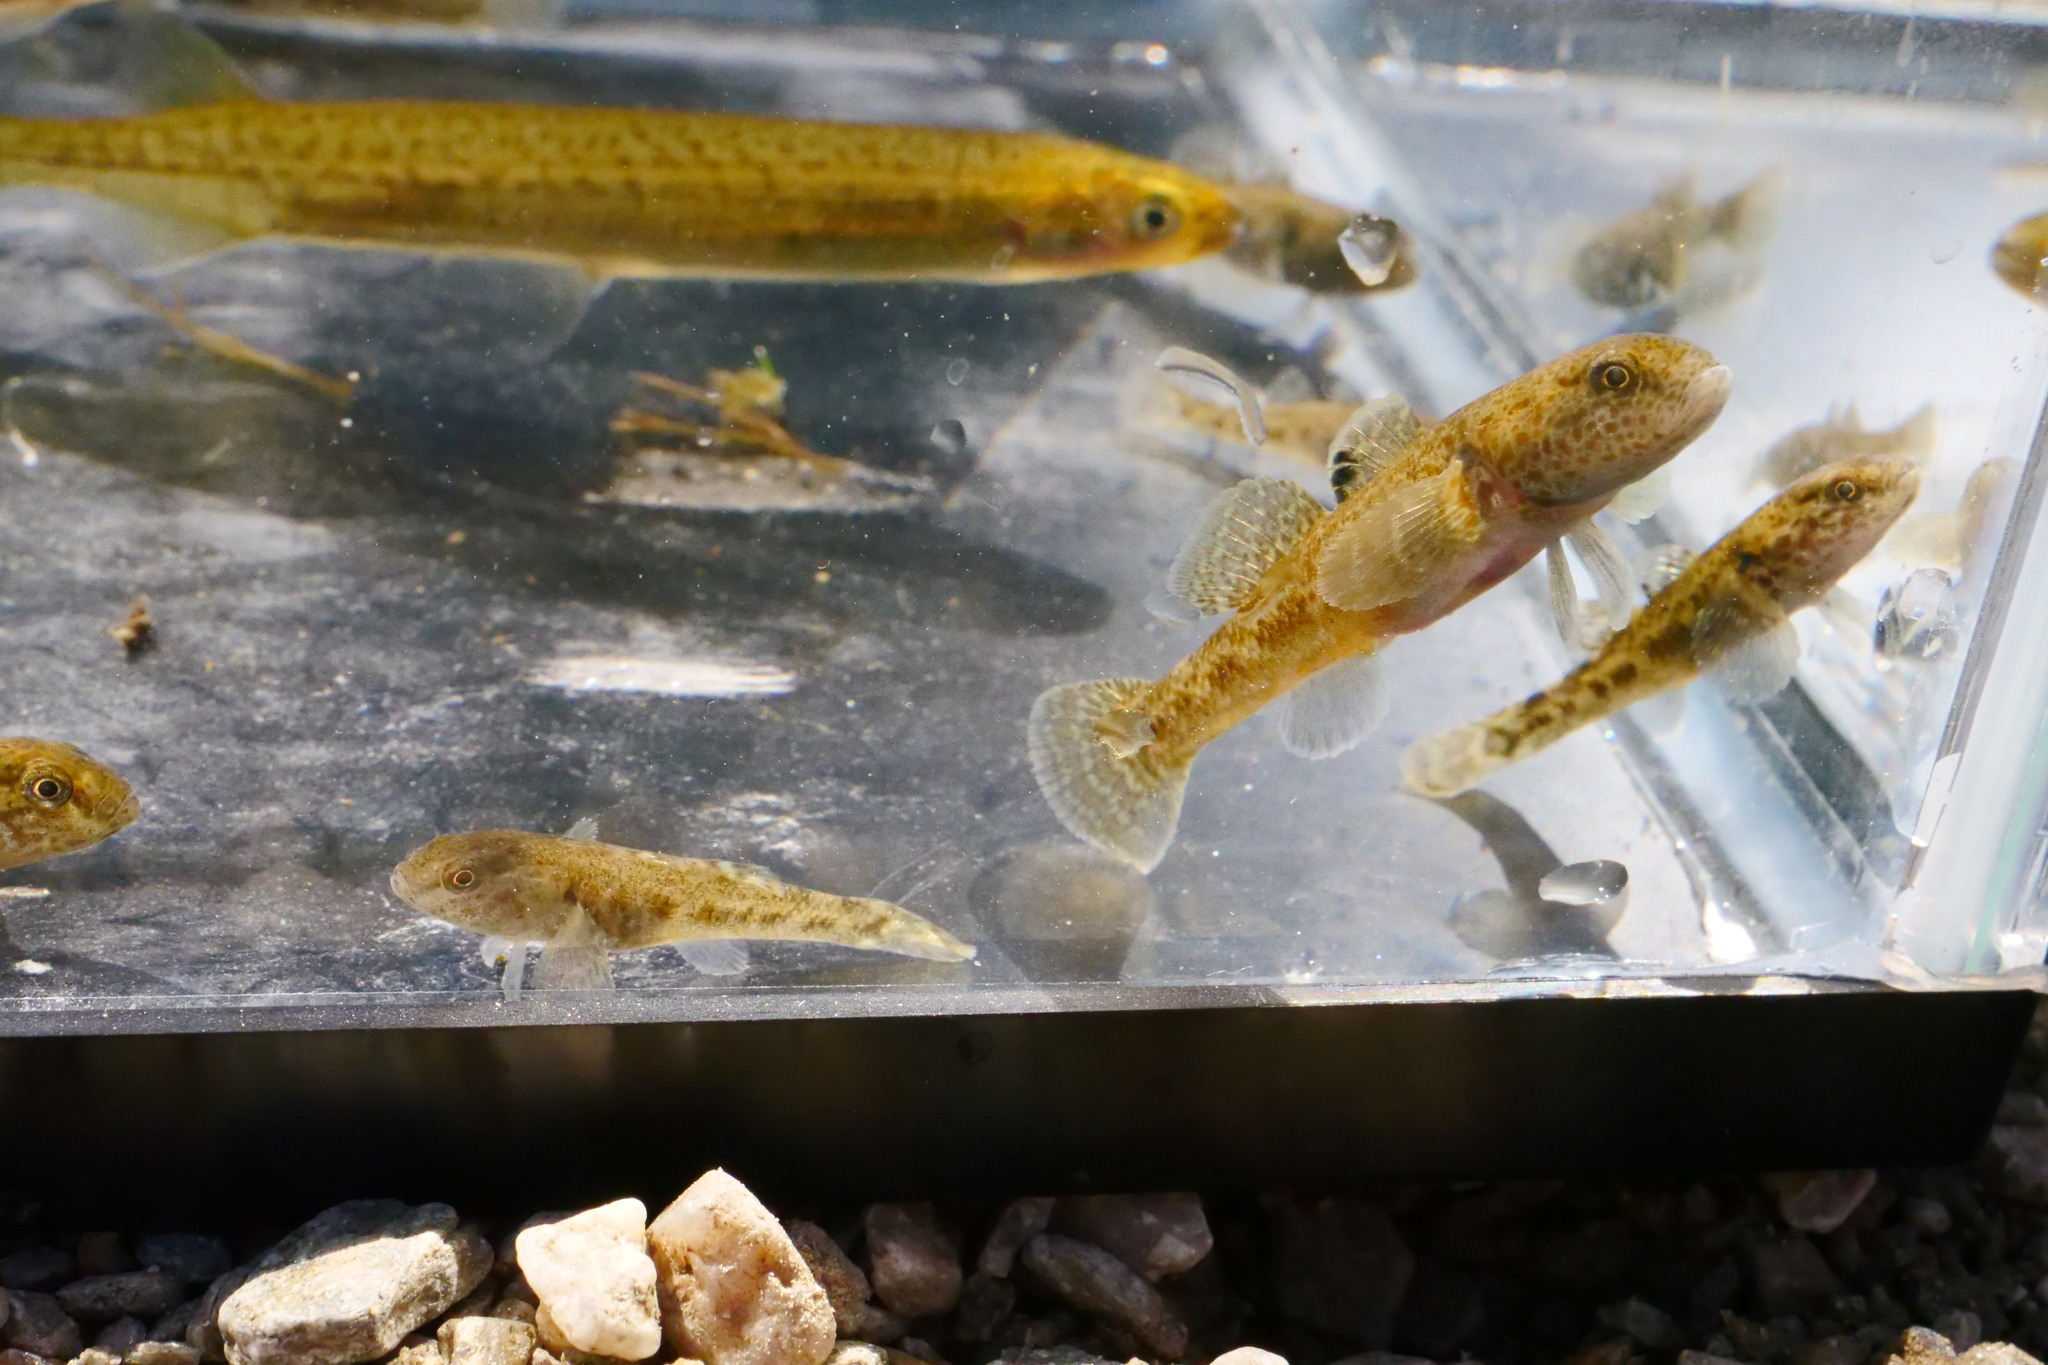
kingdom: Animalia
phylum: Chordata
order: Perciformes
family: Eleotridae
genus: Gobiomorphus
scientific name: Gobiomorphus breviceps
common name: Upland bully
